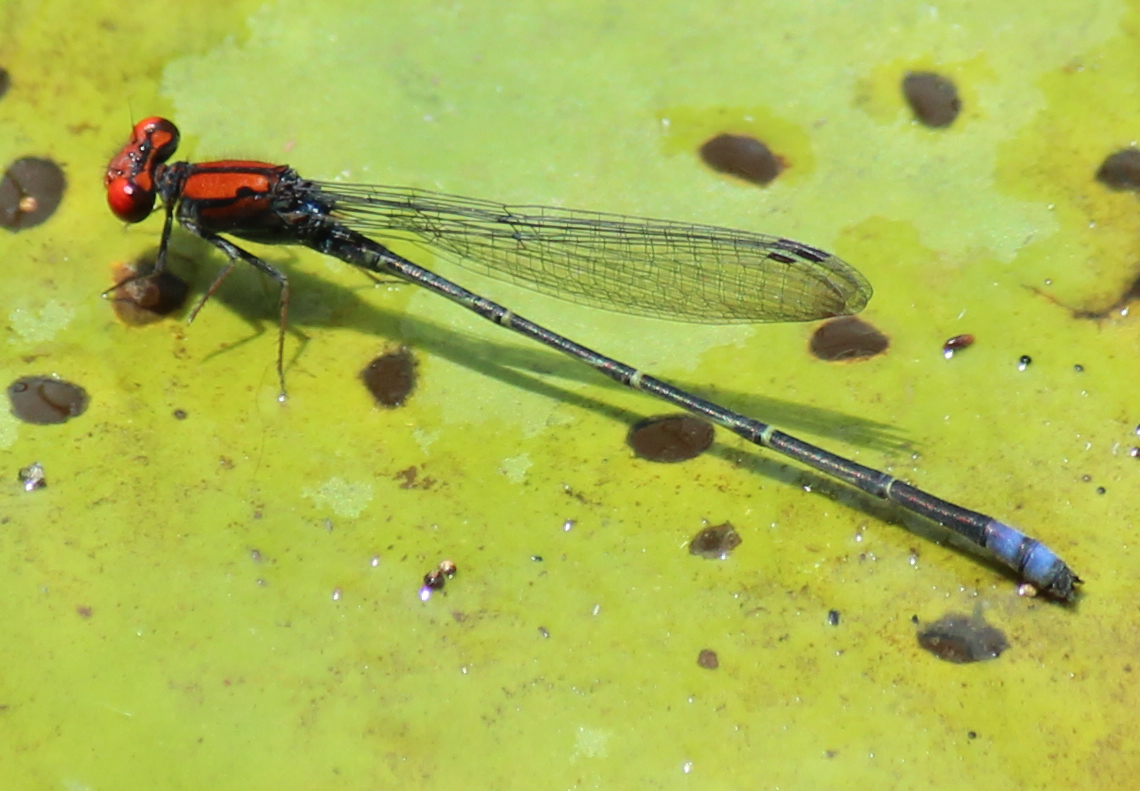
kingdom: Animalia
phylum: Arthropoda
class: Insecta
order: Odonata
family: Coenagrionidae
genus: Pseudagrion
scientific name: Pseudagrion massaicum
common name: Masai sprite
